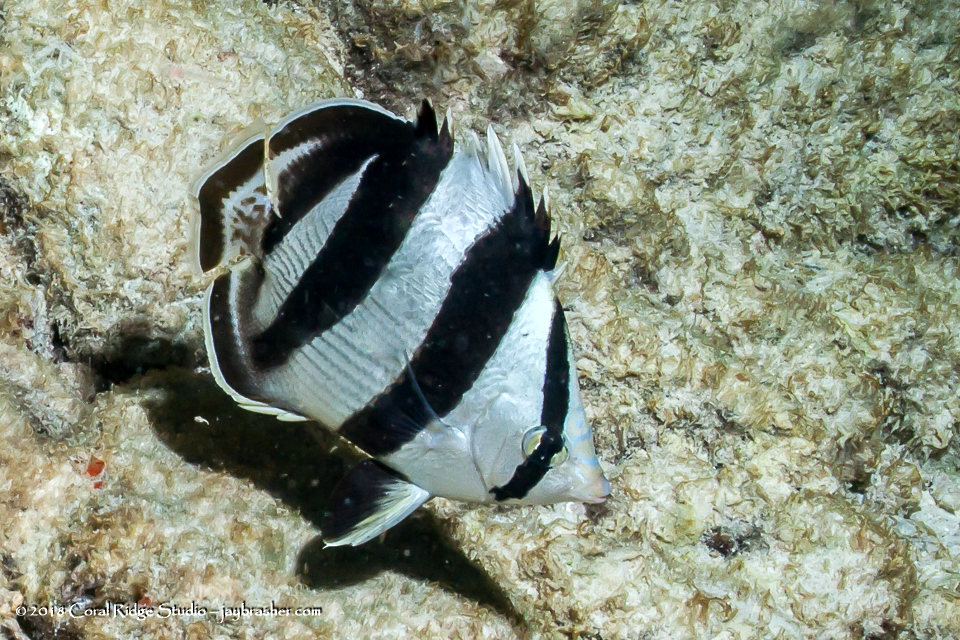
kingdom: Animalia
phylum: Chordata
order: Perciformes
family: Chaetodontidae
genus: Chaetodon
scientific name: Chaetodon striatus
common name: Banded butterflyfish
